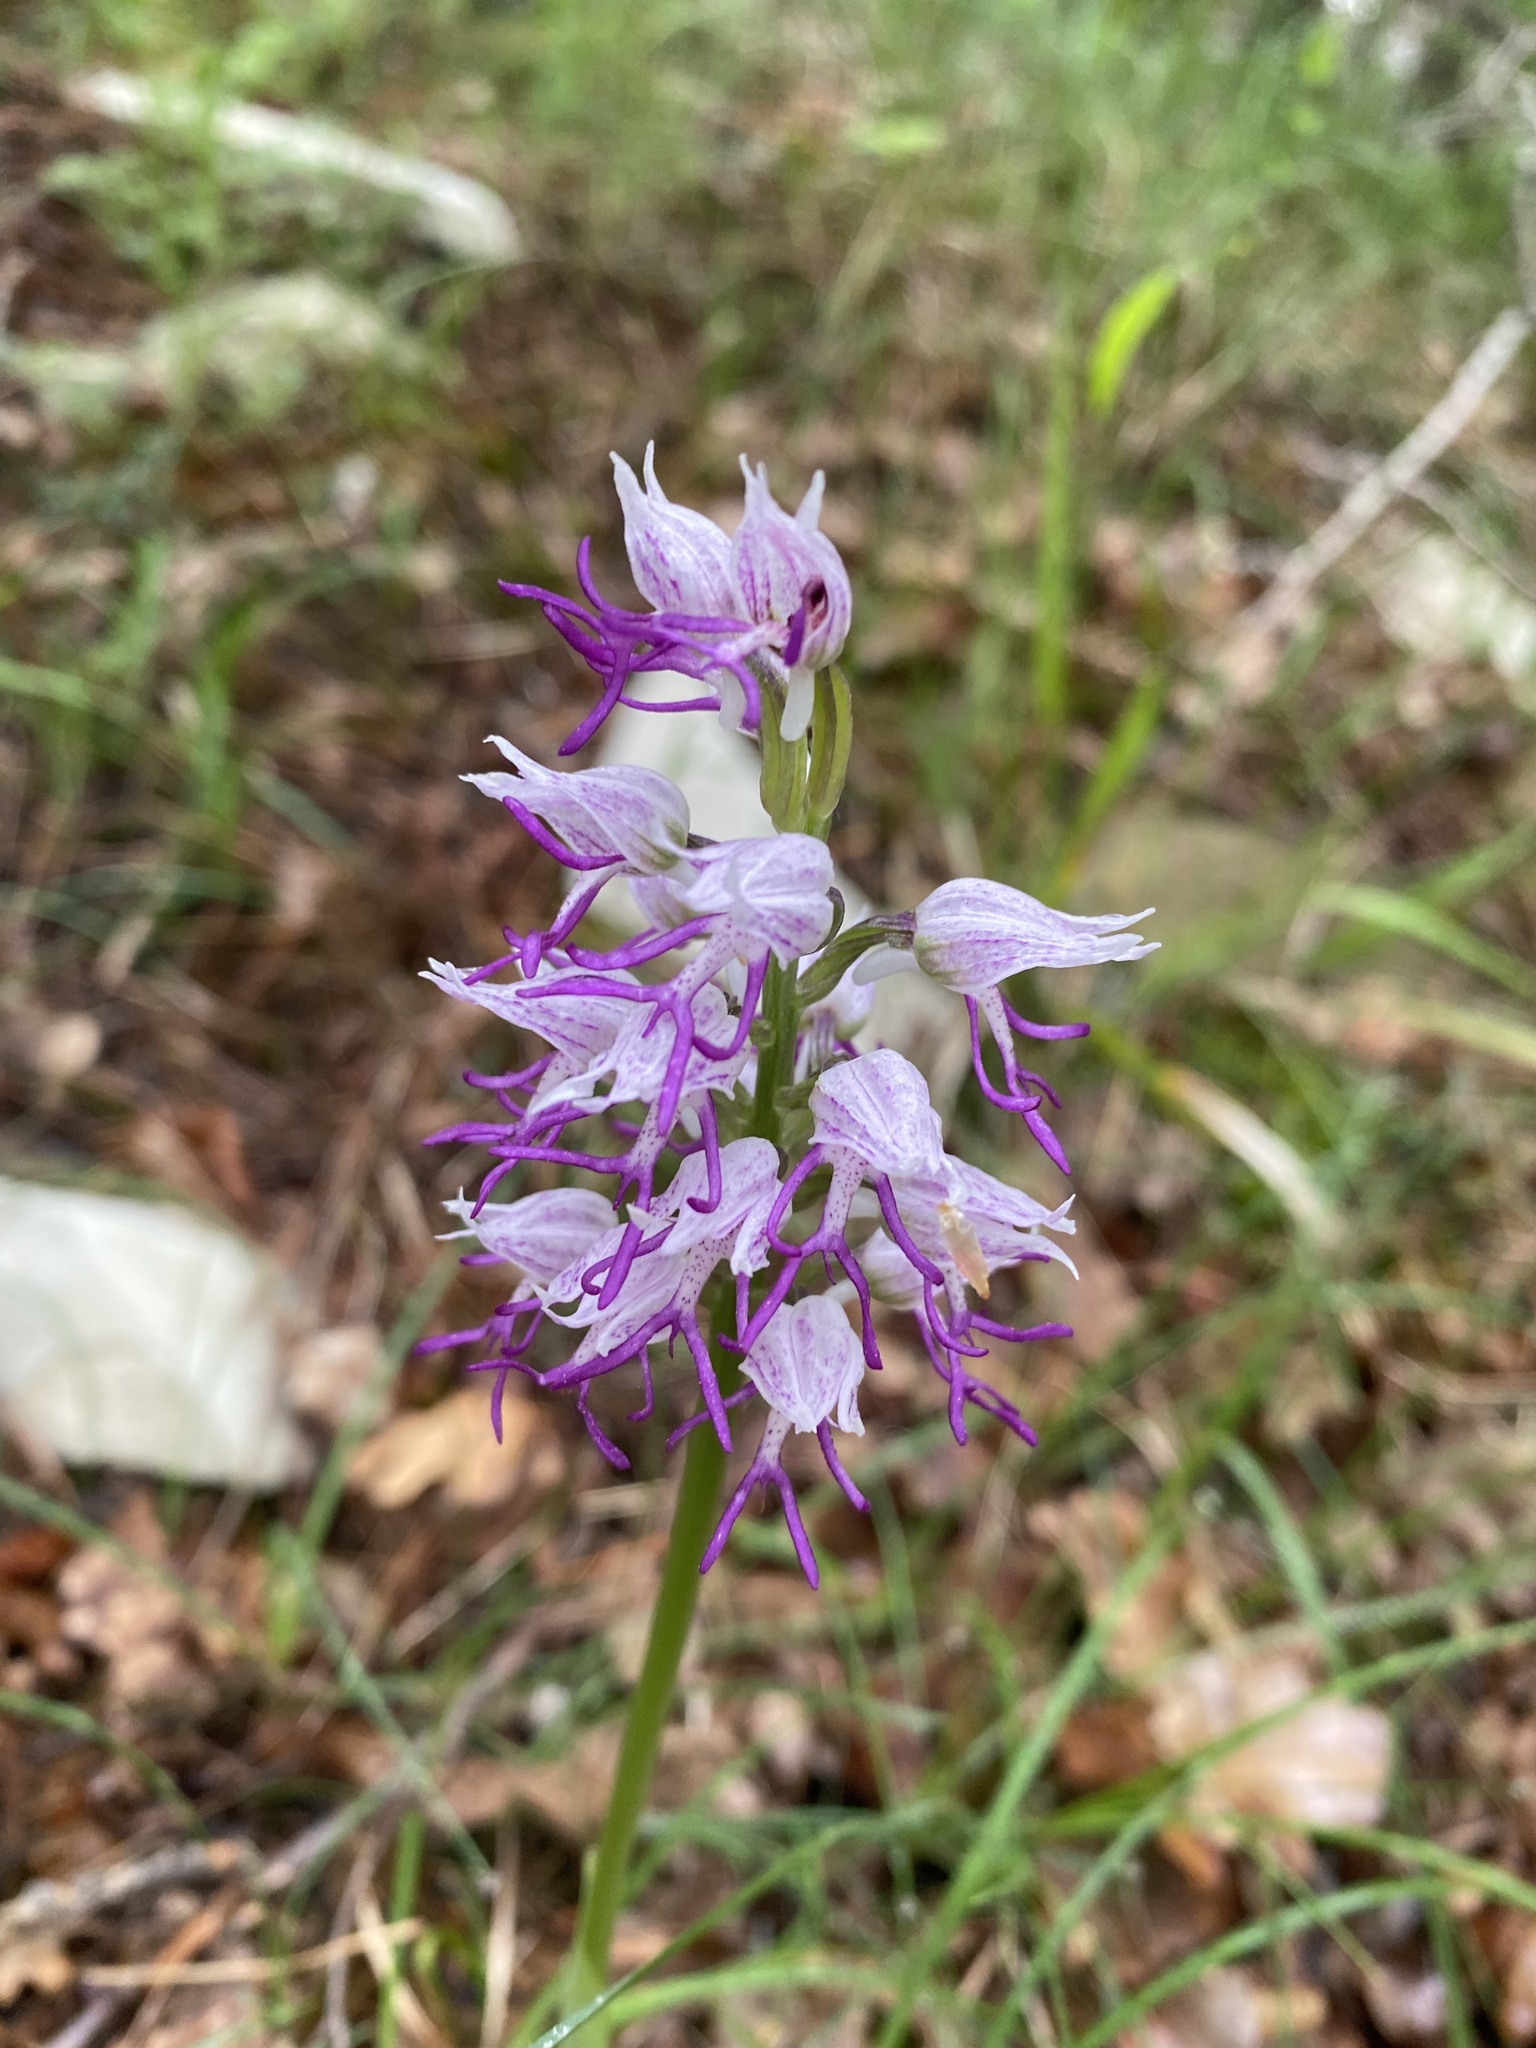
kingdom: Plantae
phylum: Tracheophyta
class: Liliopsida
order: Asparagales
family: Orchidaceae
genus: Orchis
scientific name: Orchis simia
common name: Monkey orchid
